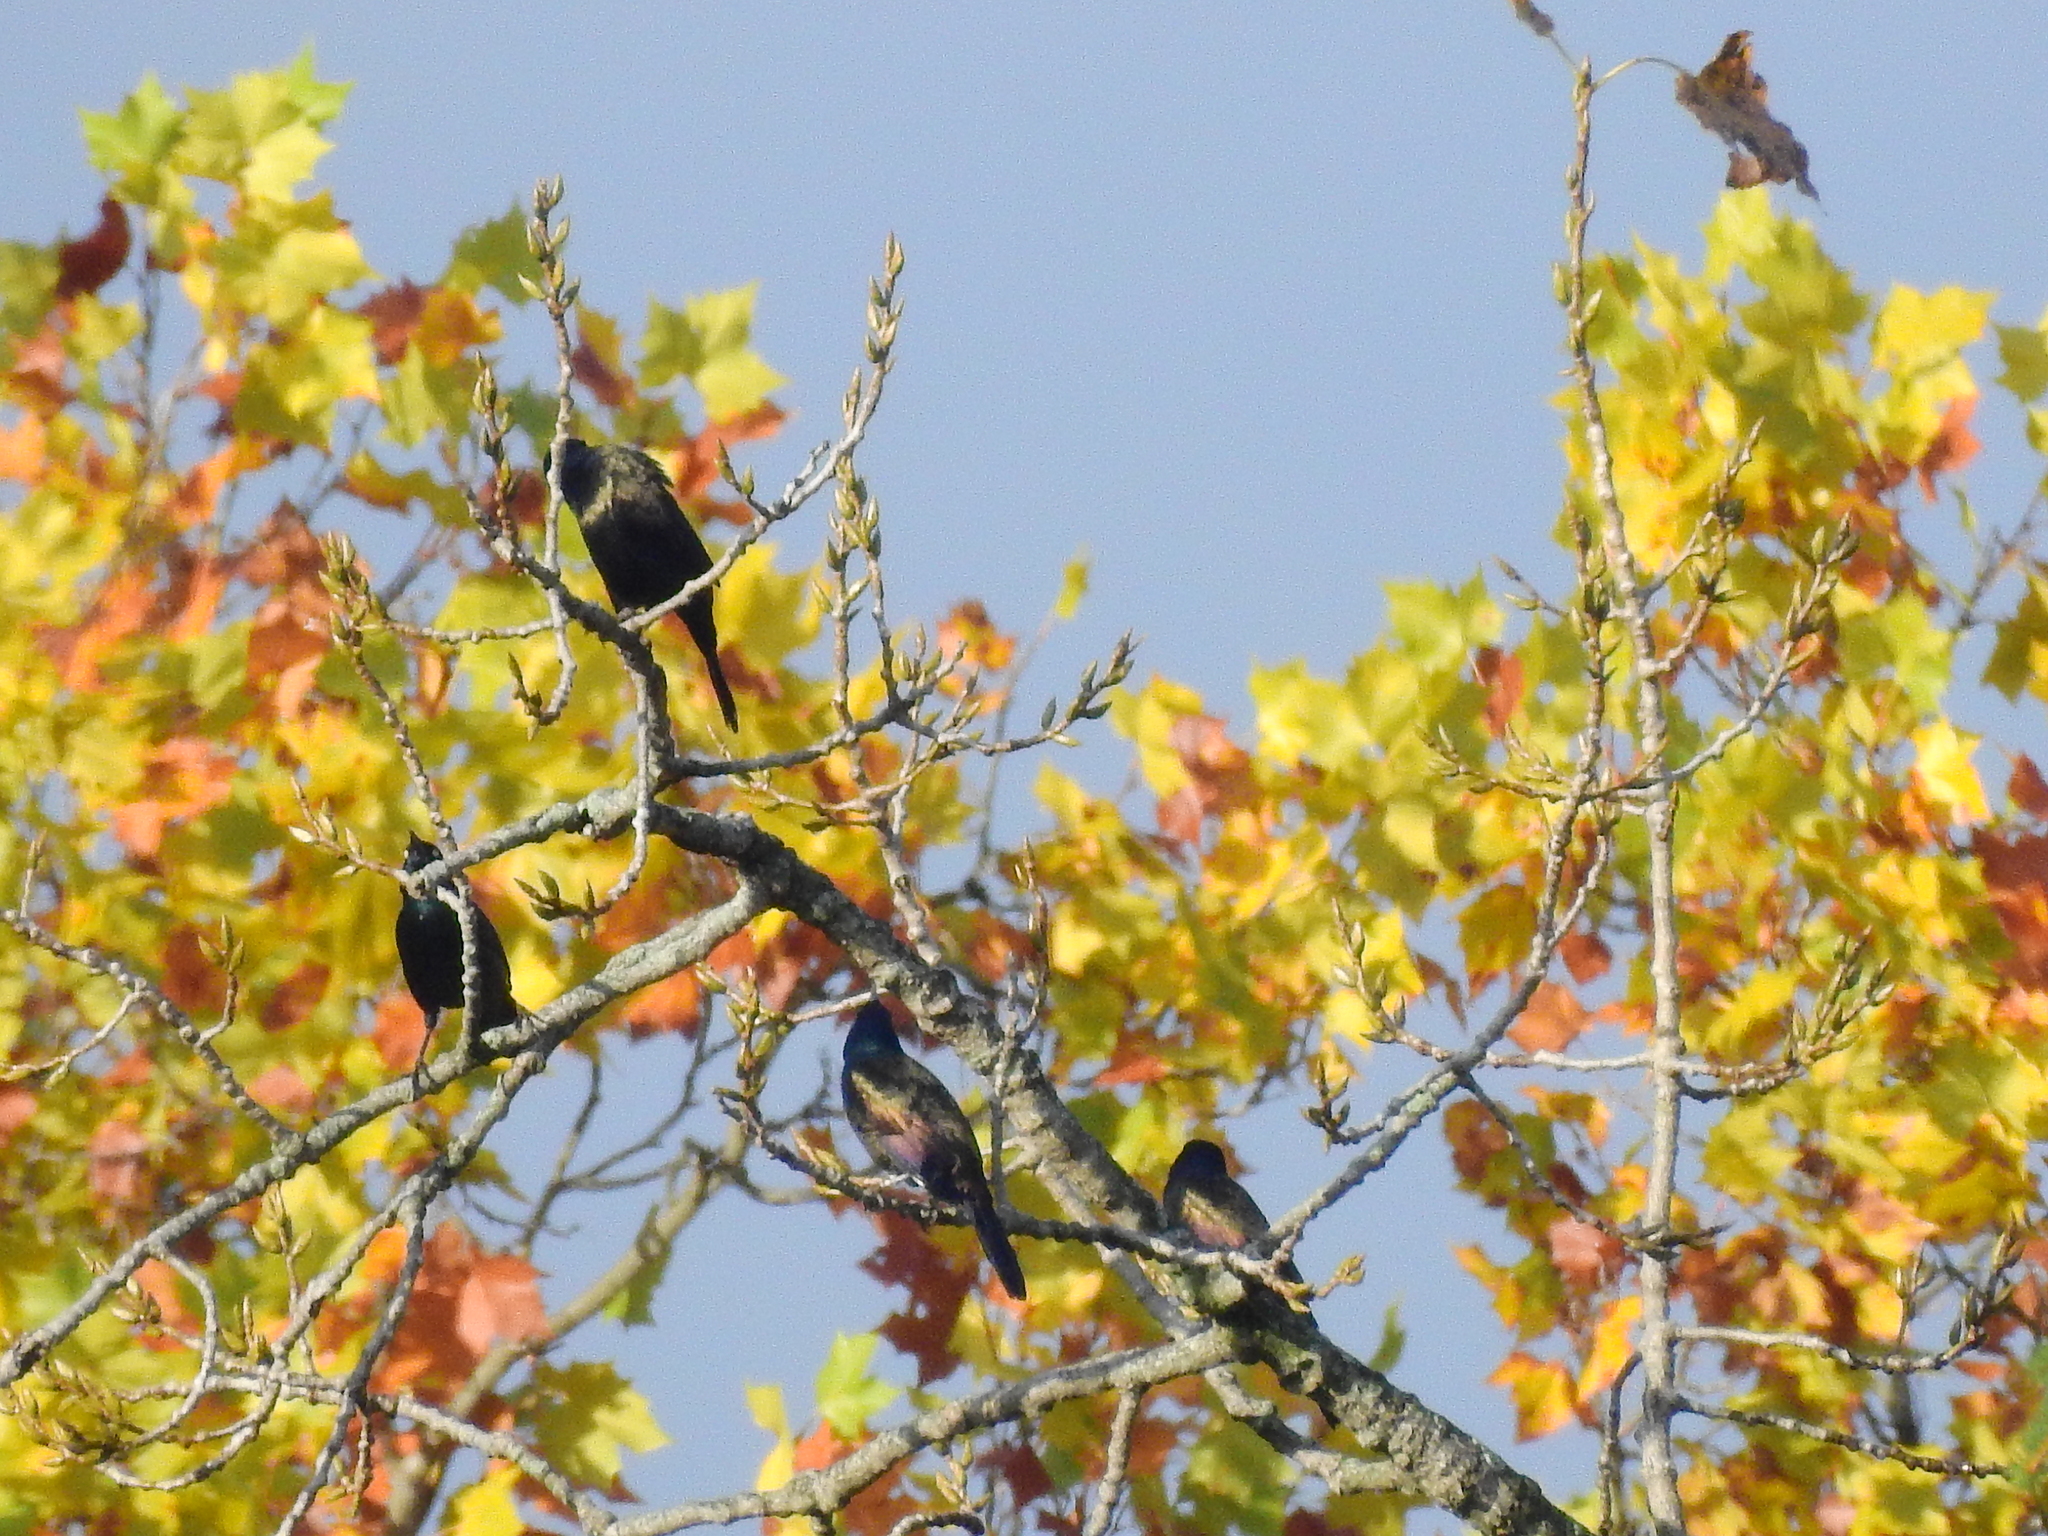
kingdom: Animalia
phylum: Chordata
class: Aves
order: Passeriformes
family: Icteridae
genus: Quiscalus
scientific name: Quiscalus quiscula
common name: Common grackle
